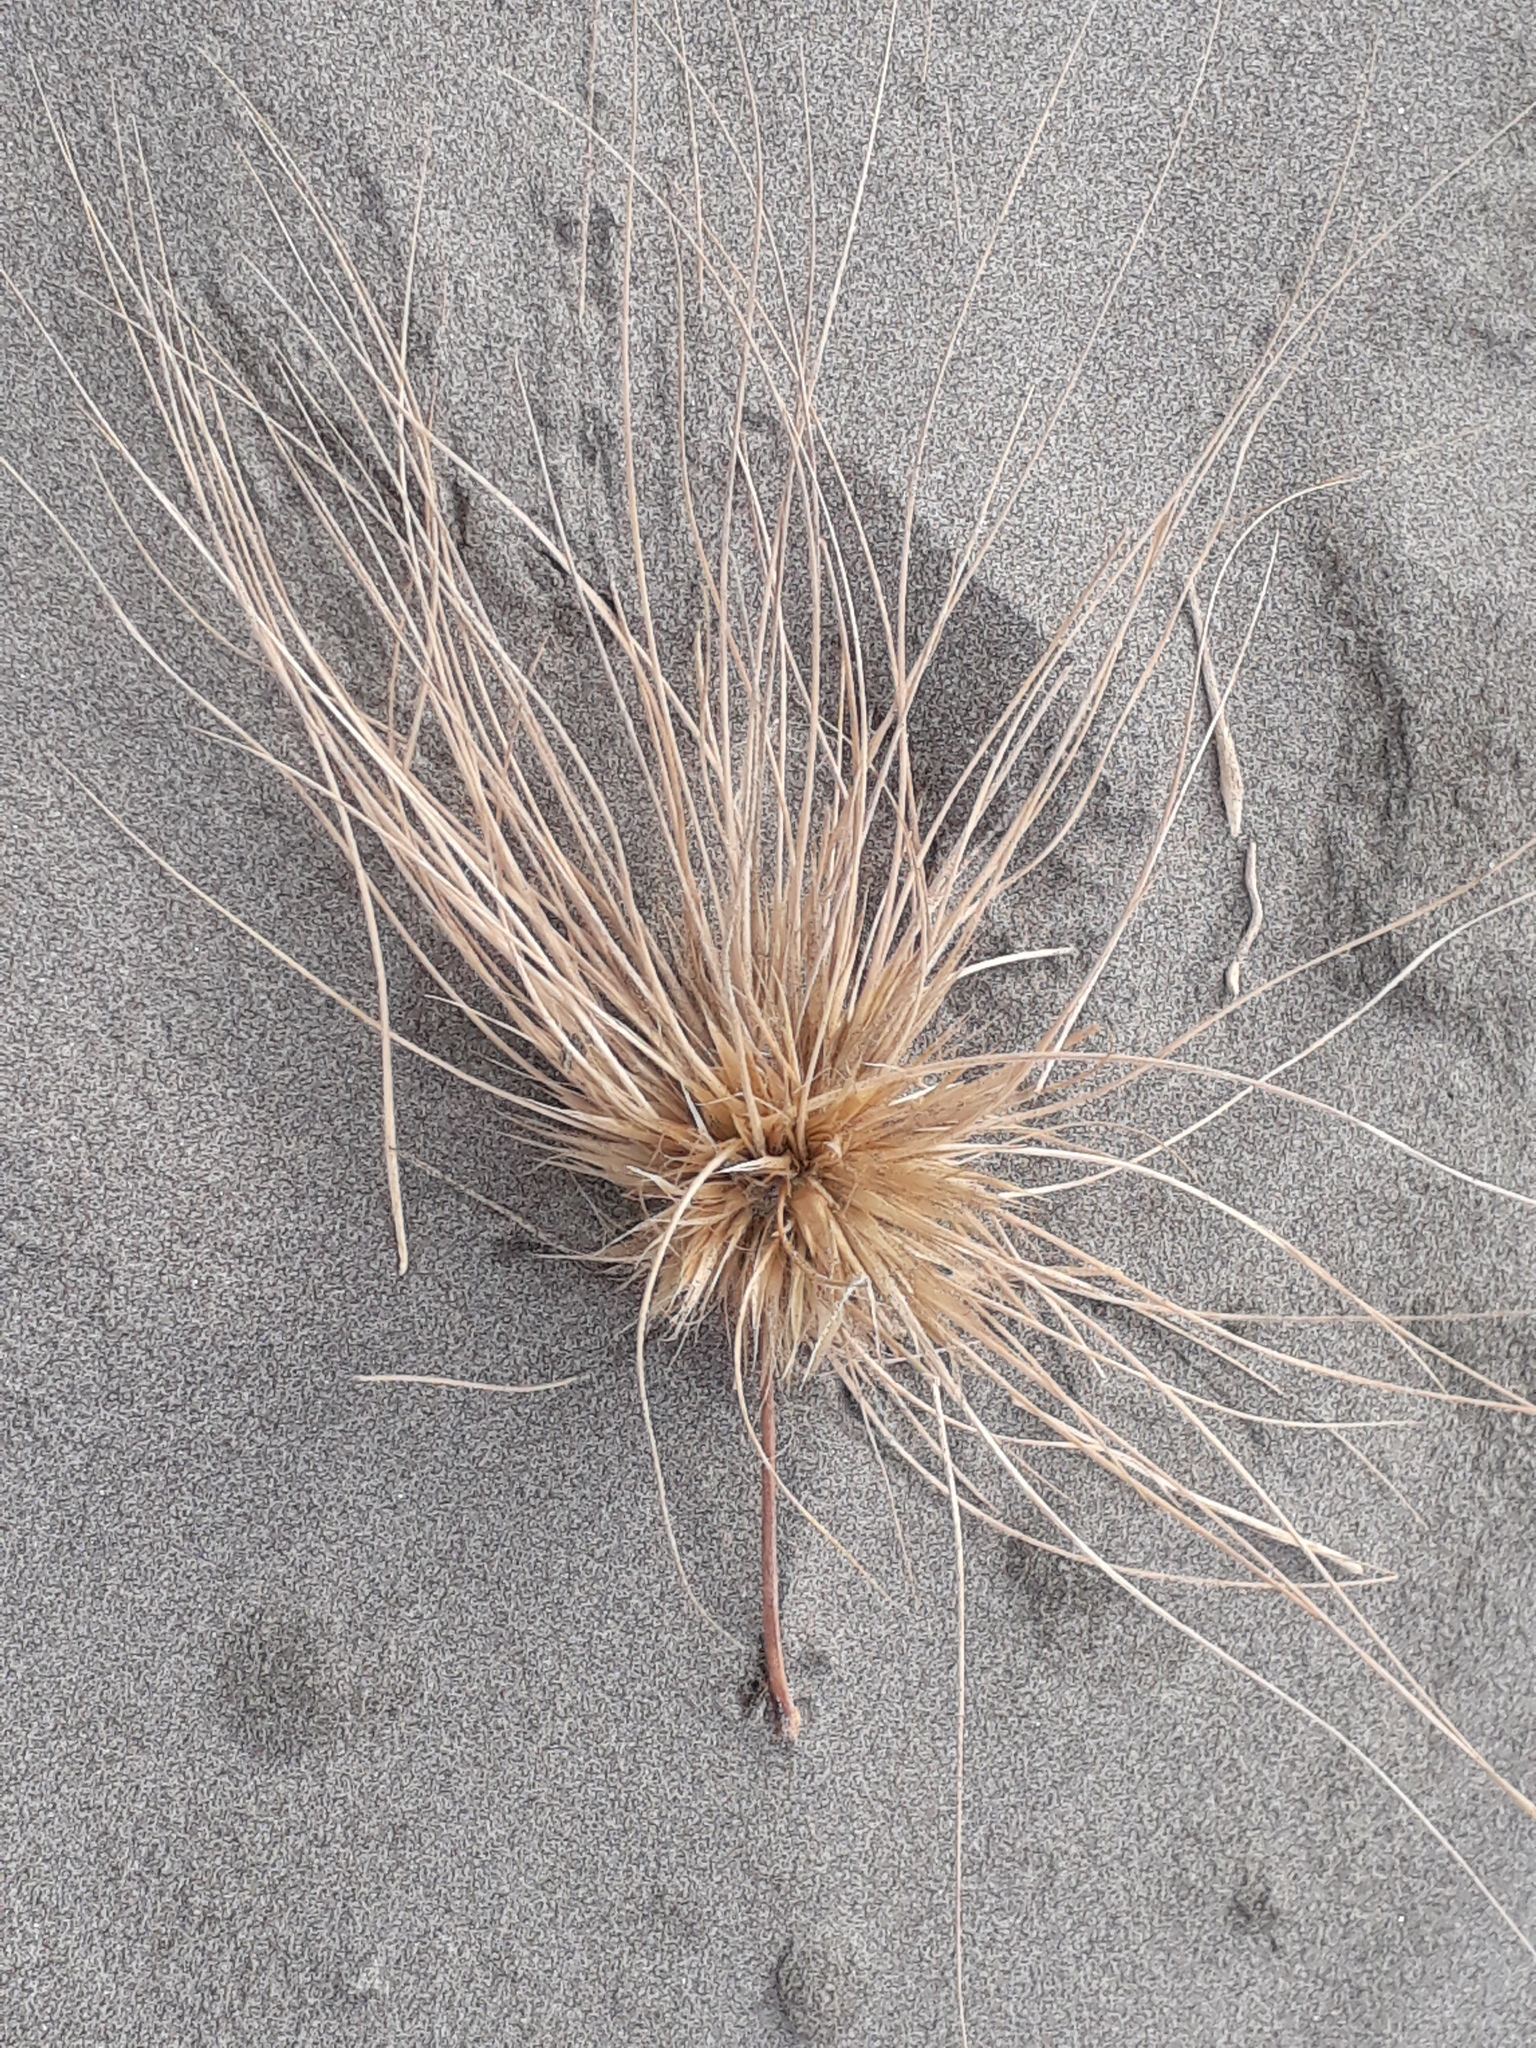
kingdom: Plantae
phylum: Tracheophyta
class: Liliopsida
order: Poales
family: Poaceae
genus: Spinifex
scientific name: Spinifex sericeus
